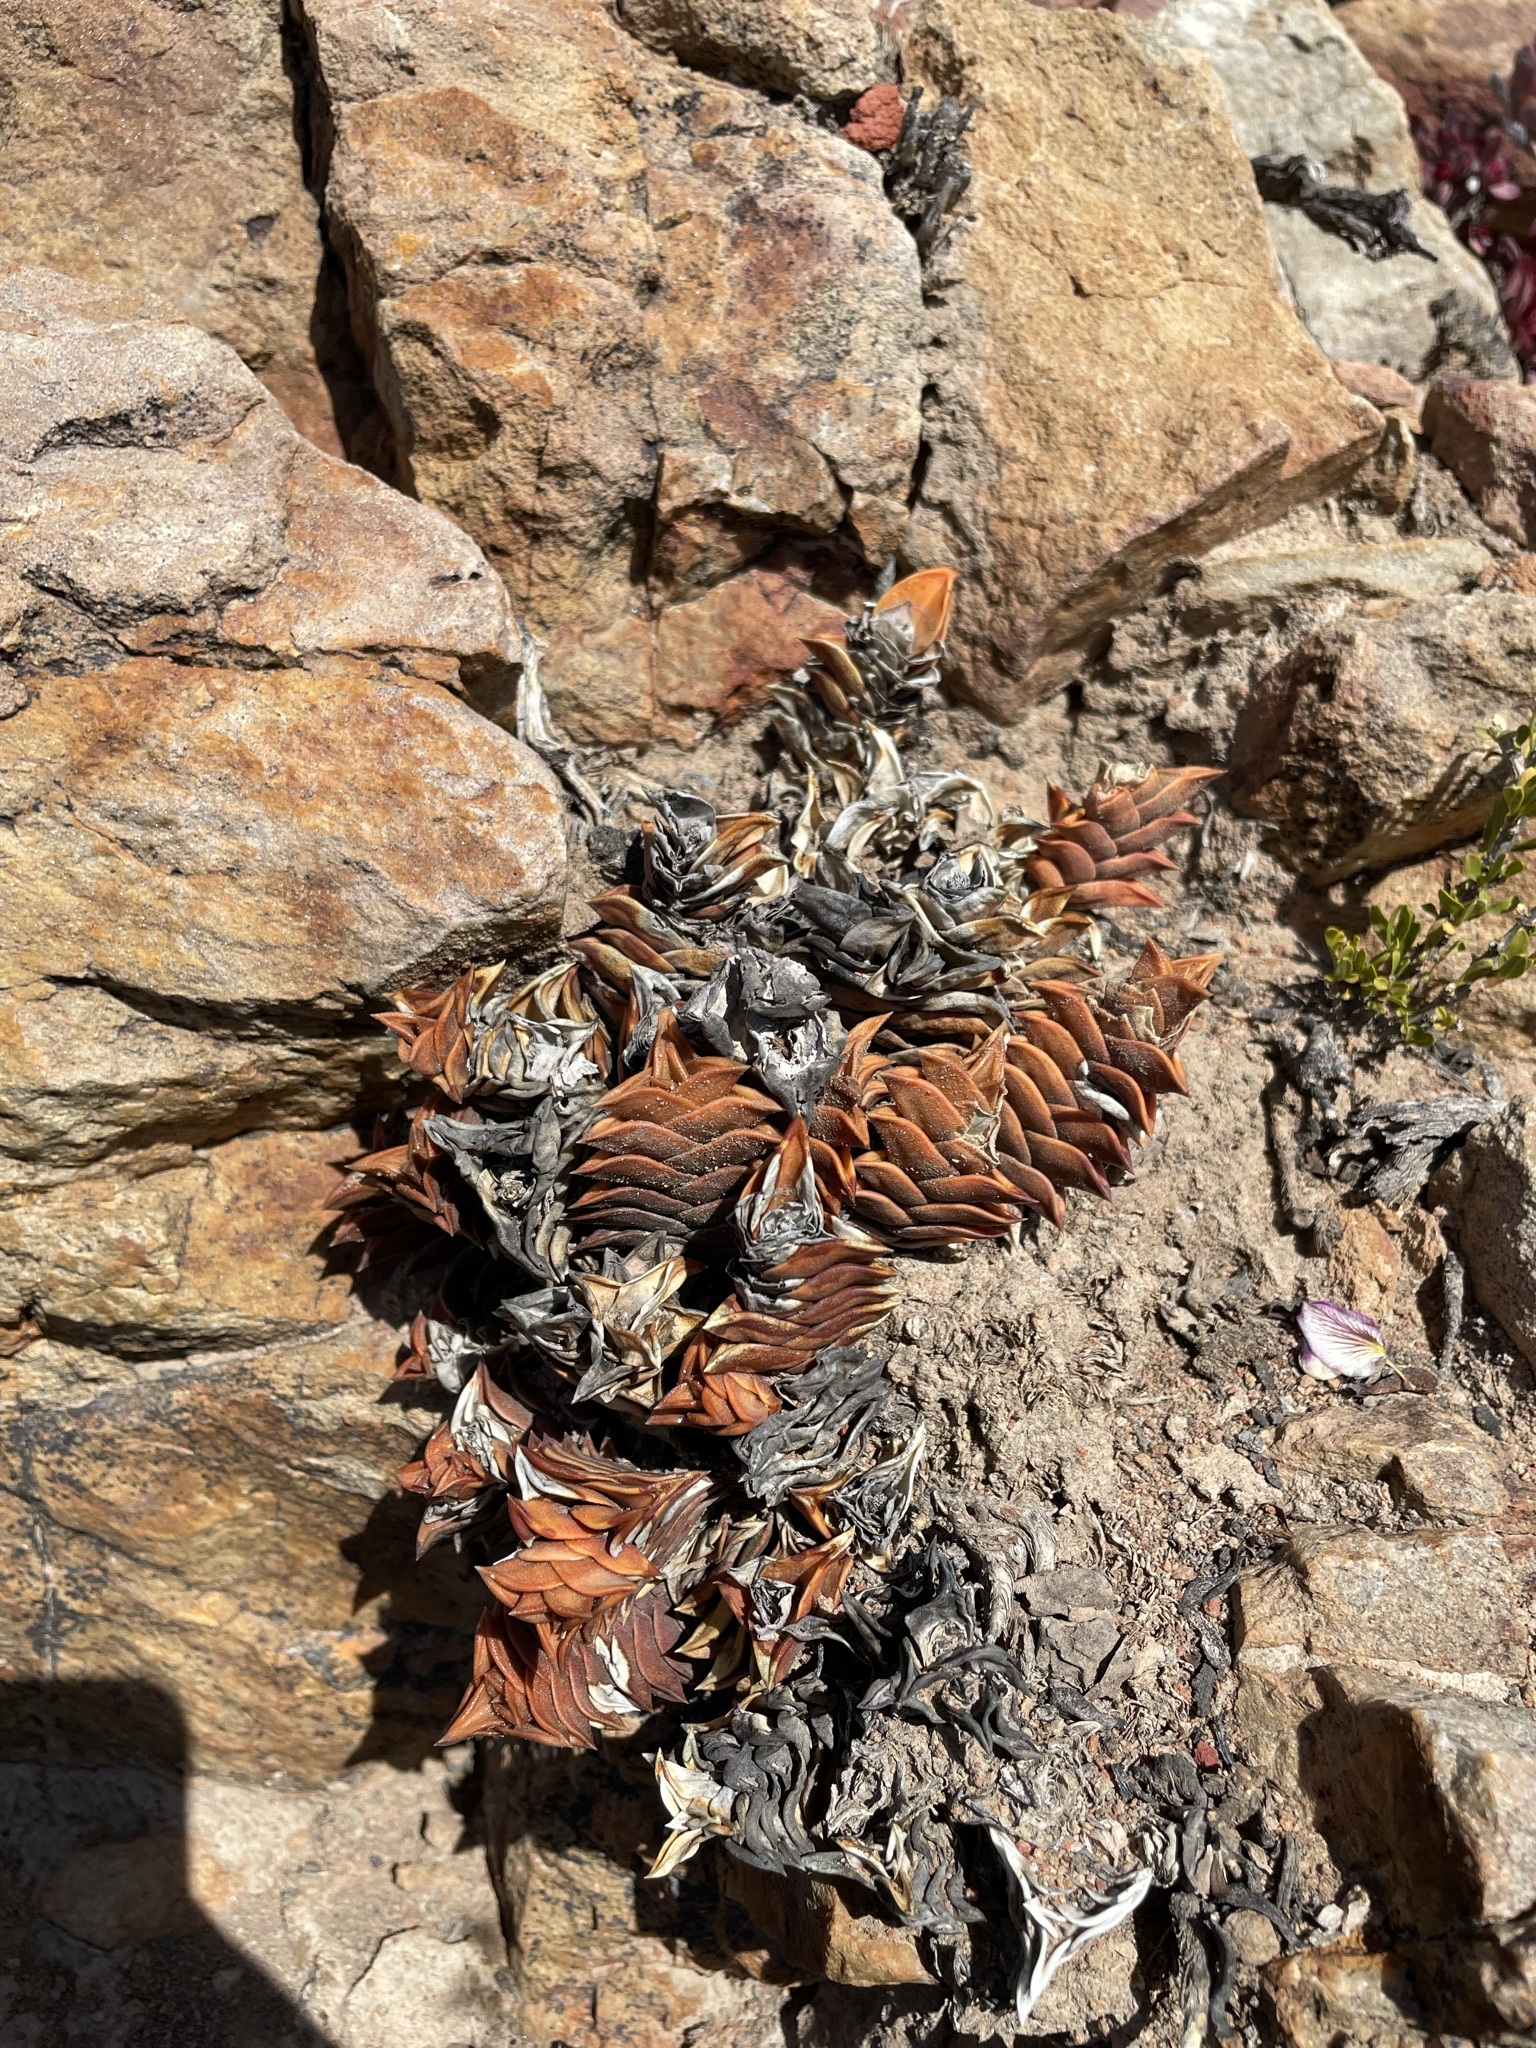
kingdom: Plantae
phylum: Tracheophyta
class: Liliopsida
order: Asparagales
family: Asphodelaceae
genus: Haworthiopsis
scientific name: Haworthiopsis viscosa
